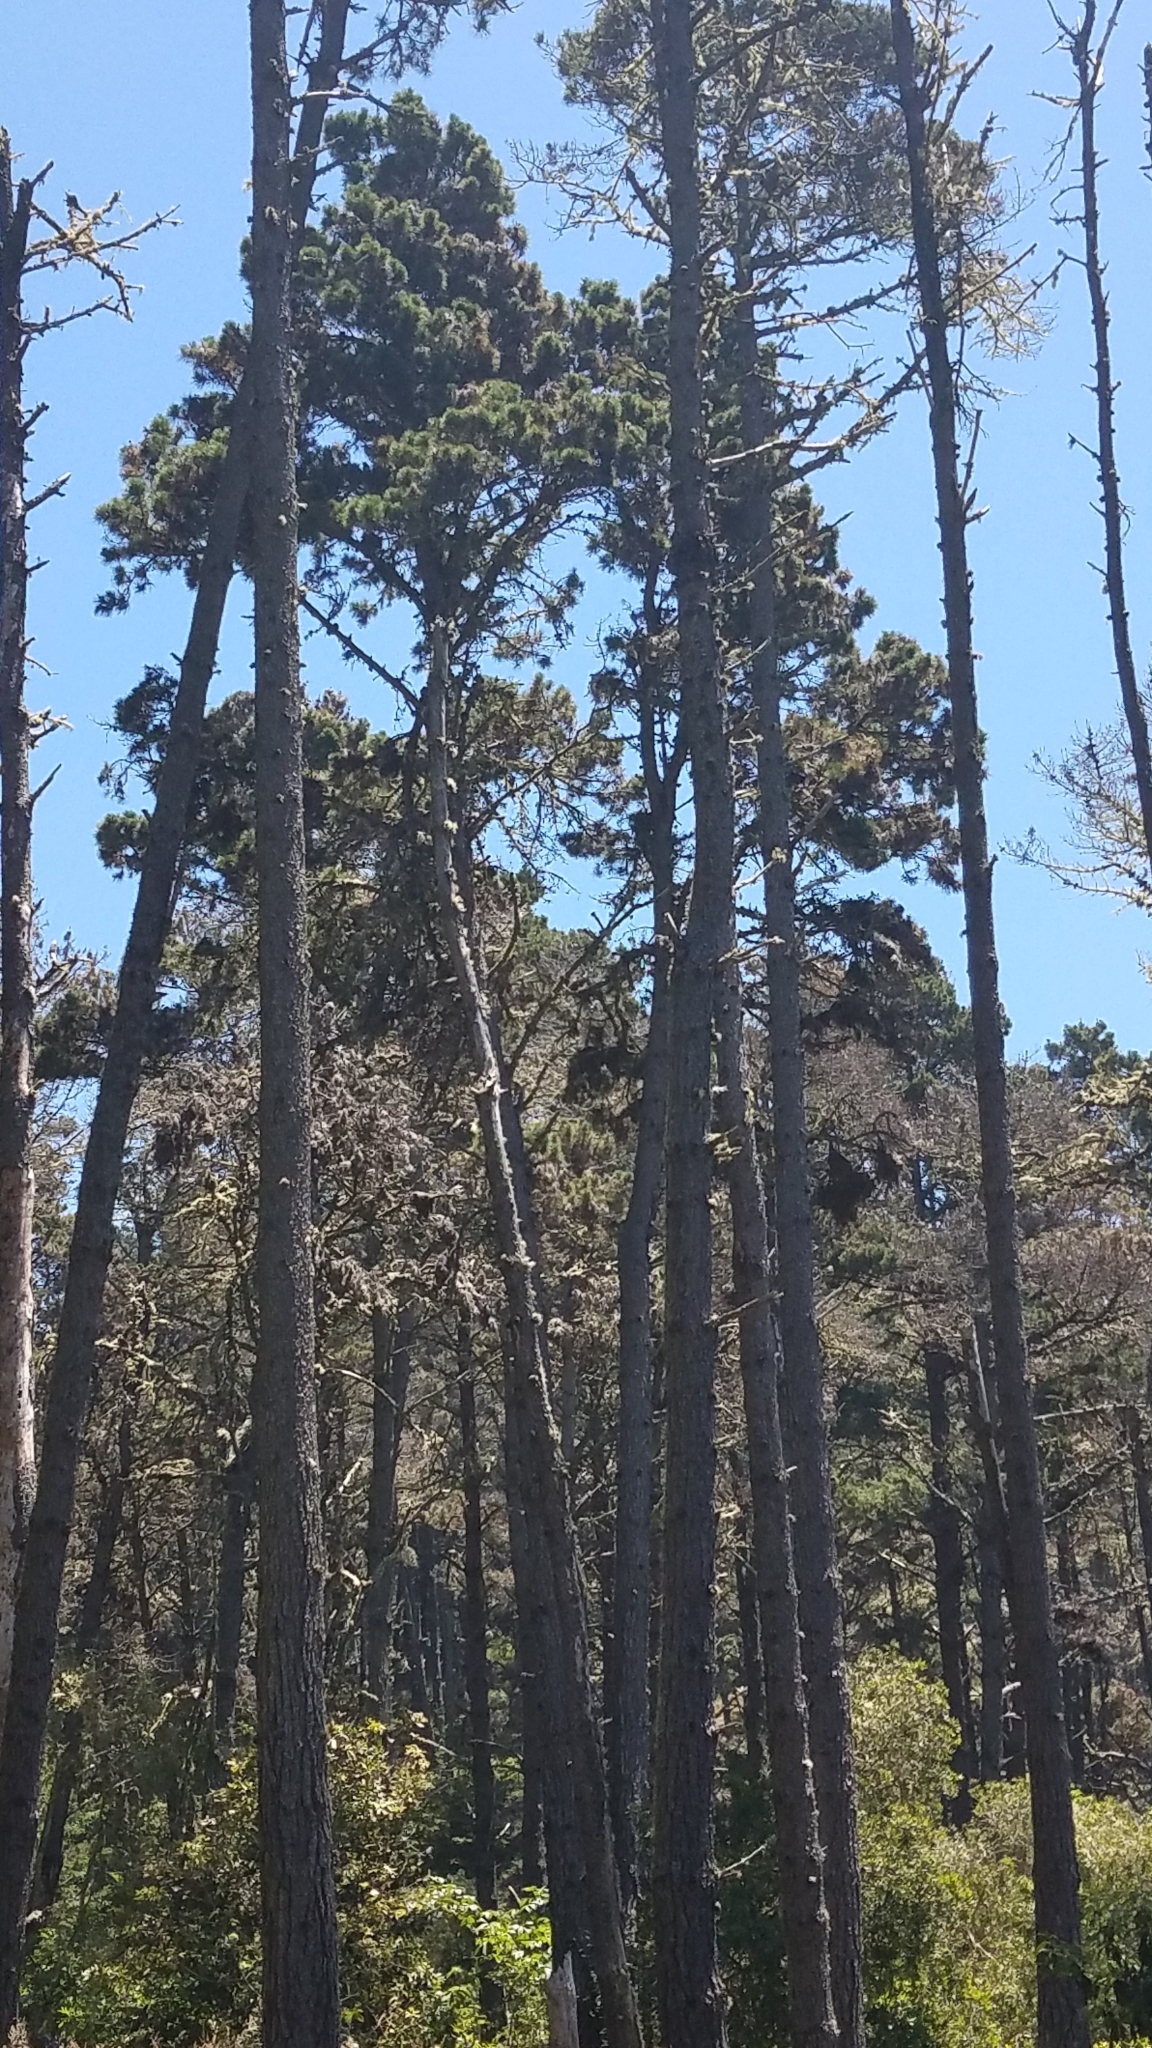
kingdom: Plantae
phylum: Tracheophyta
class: Pinopsida
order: Pinales
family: Pinaceae
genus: Pinus
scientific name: Pinus muricata
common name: Bishop pine
